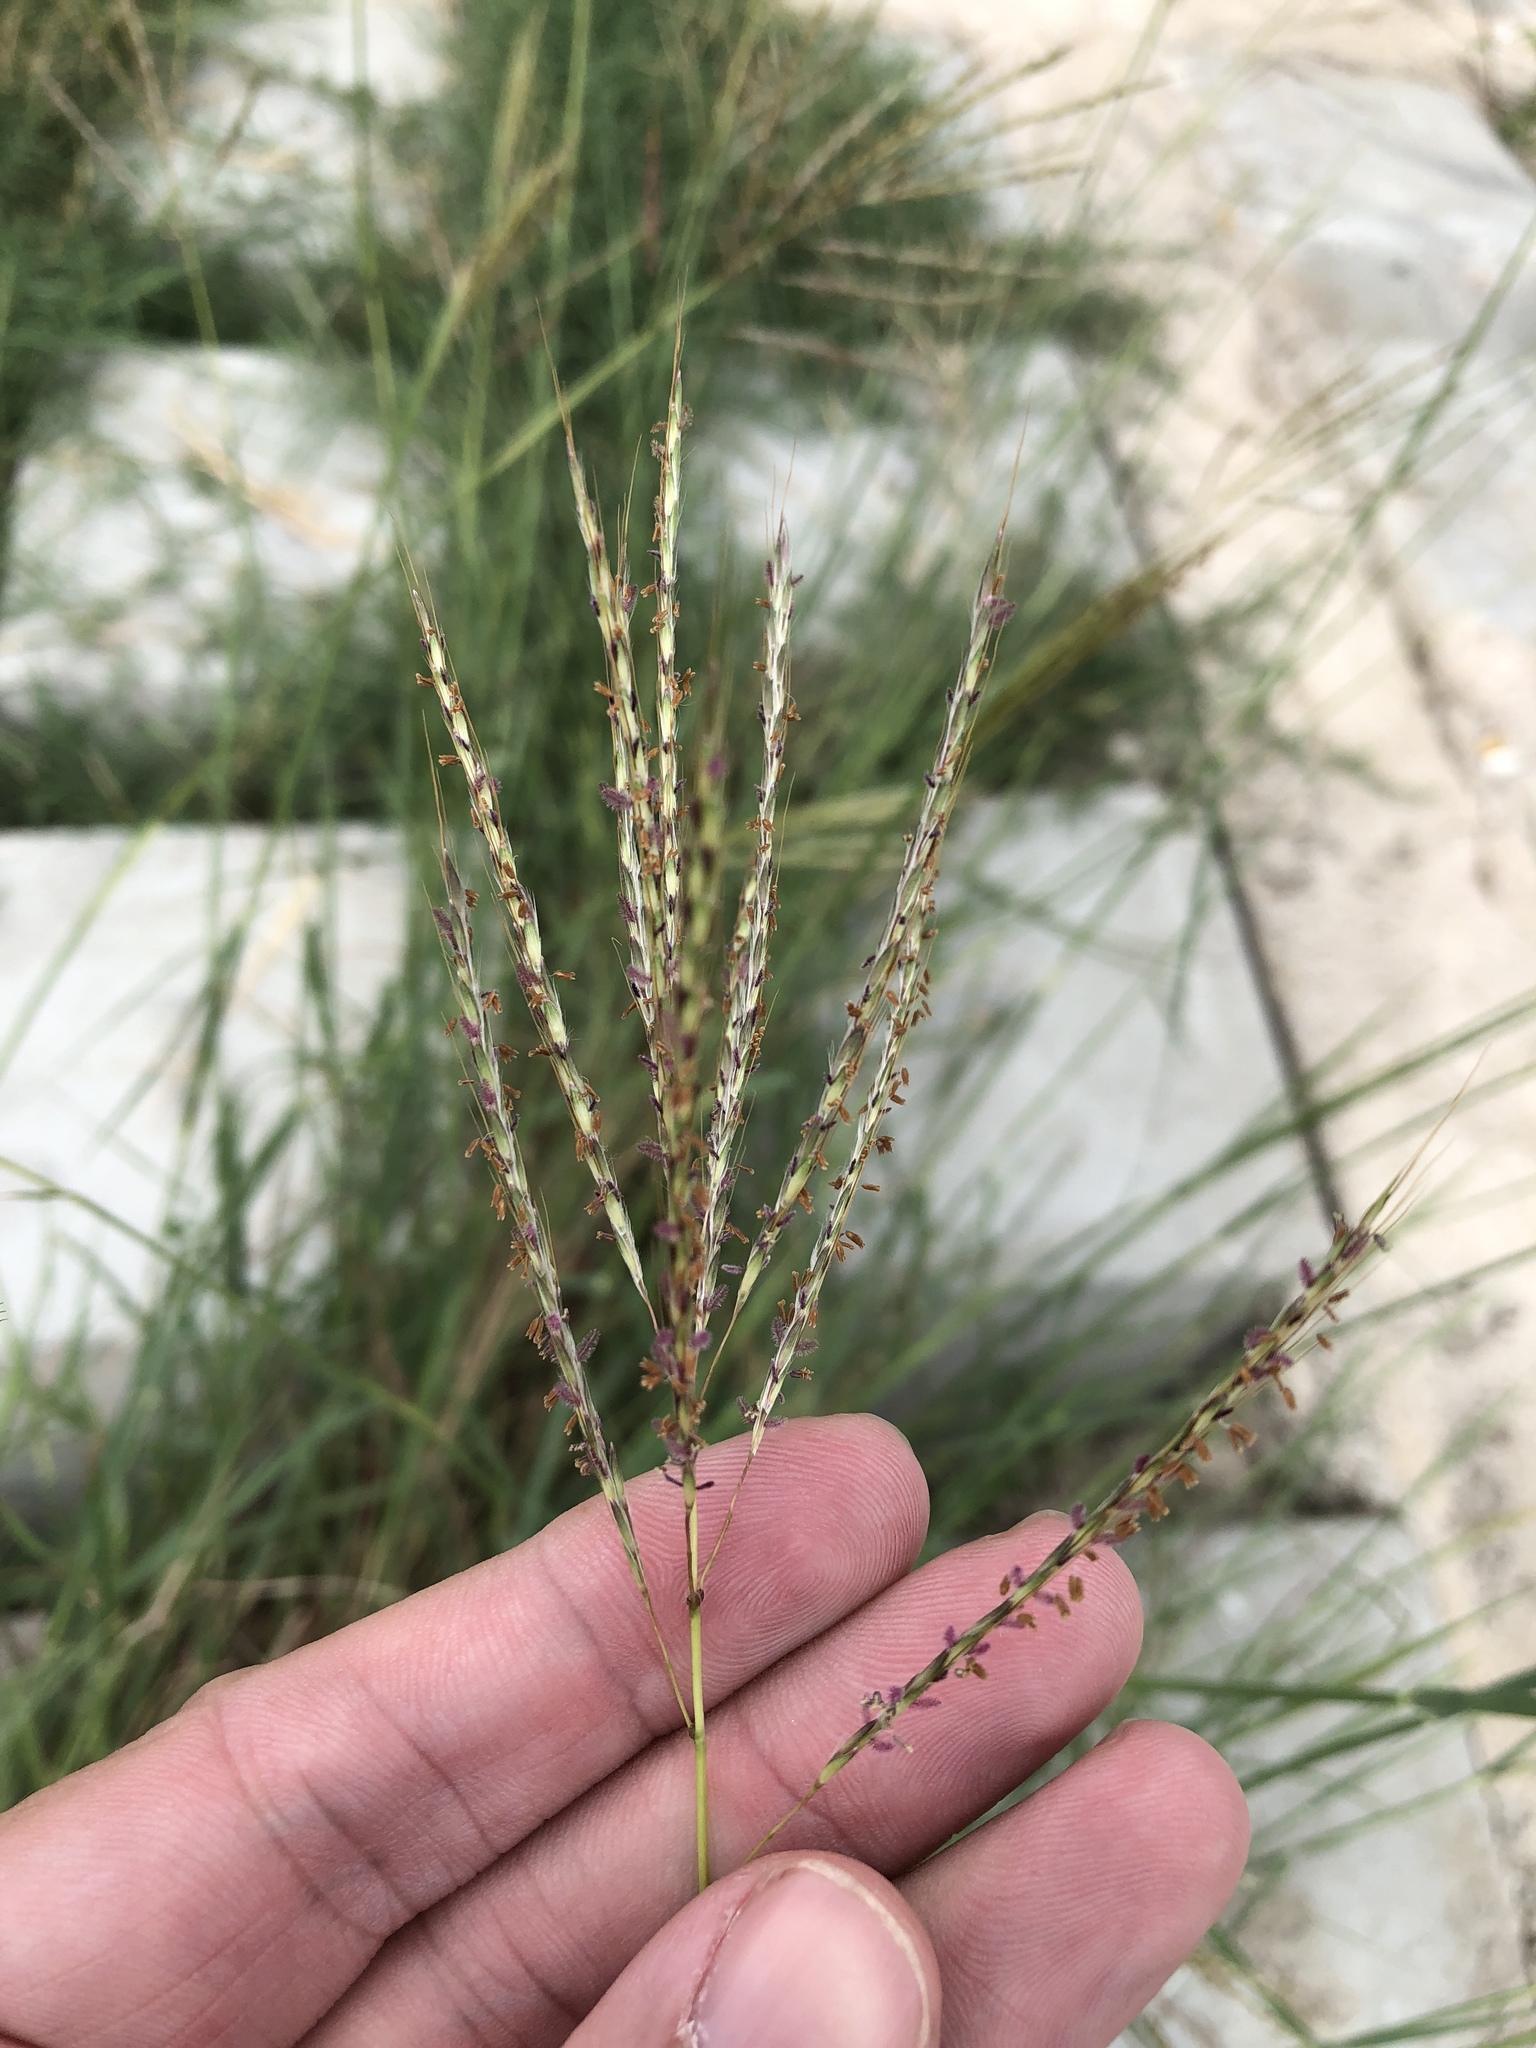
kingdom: Plantae
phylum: Tracheophyta
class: Liliopsida
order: Poales
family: Poaceae
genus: Bothriochloa
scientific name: Bothriochloa ischaemum
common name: Yellow bluestem
